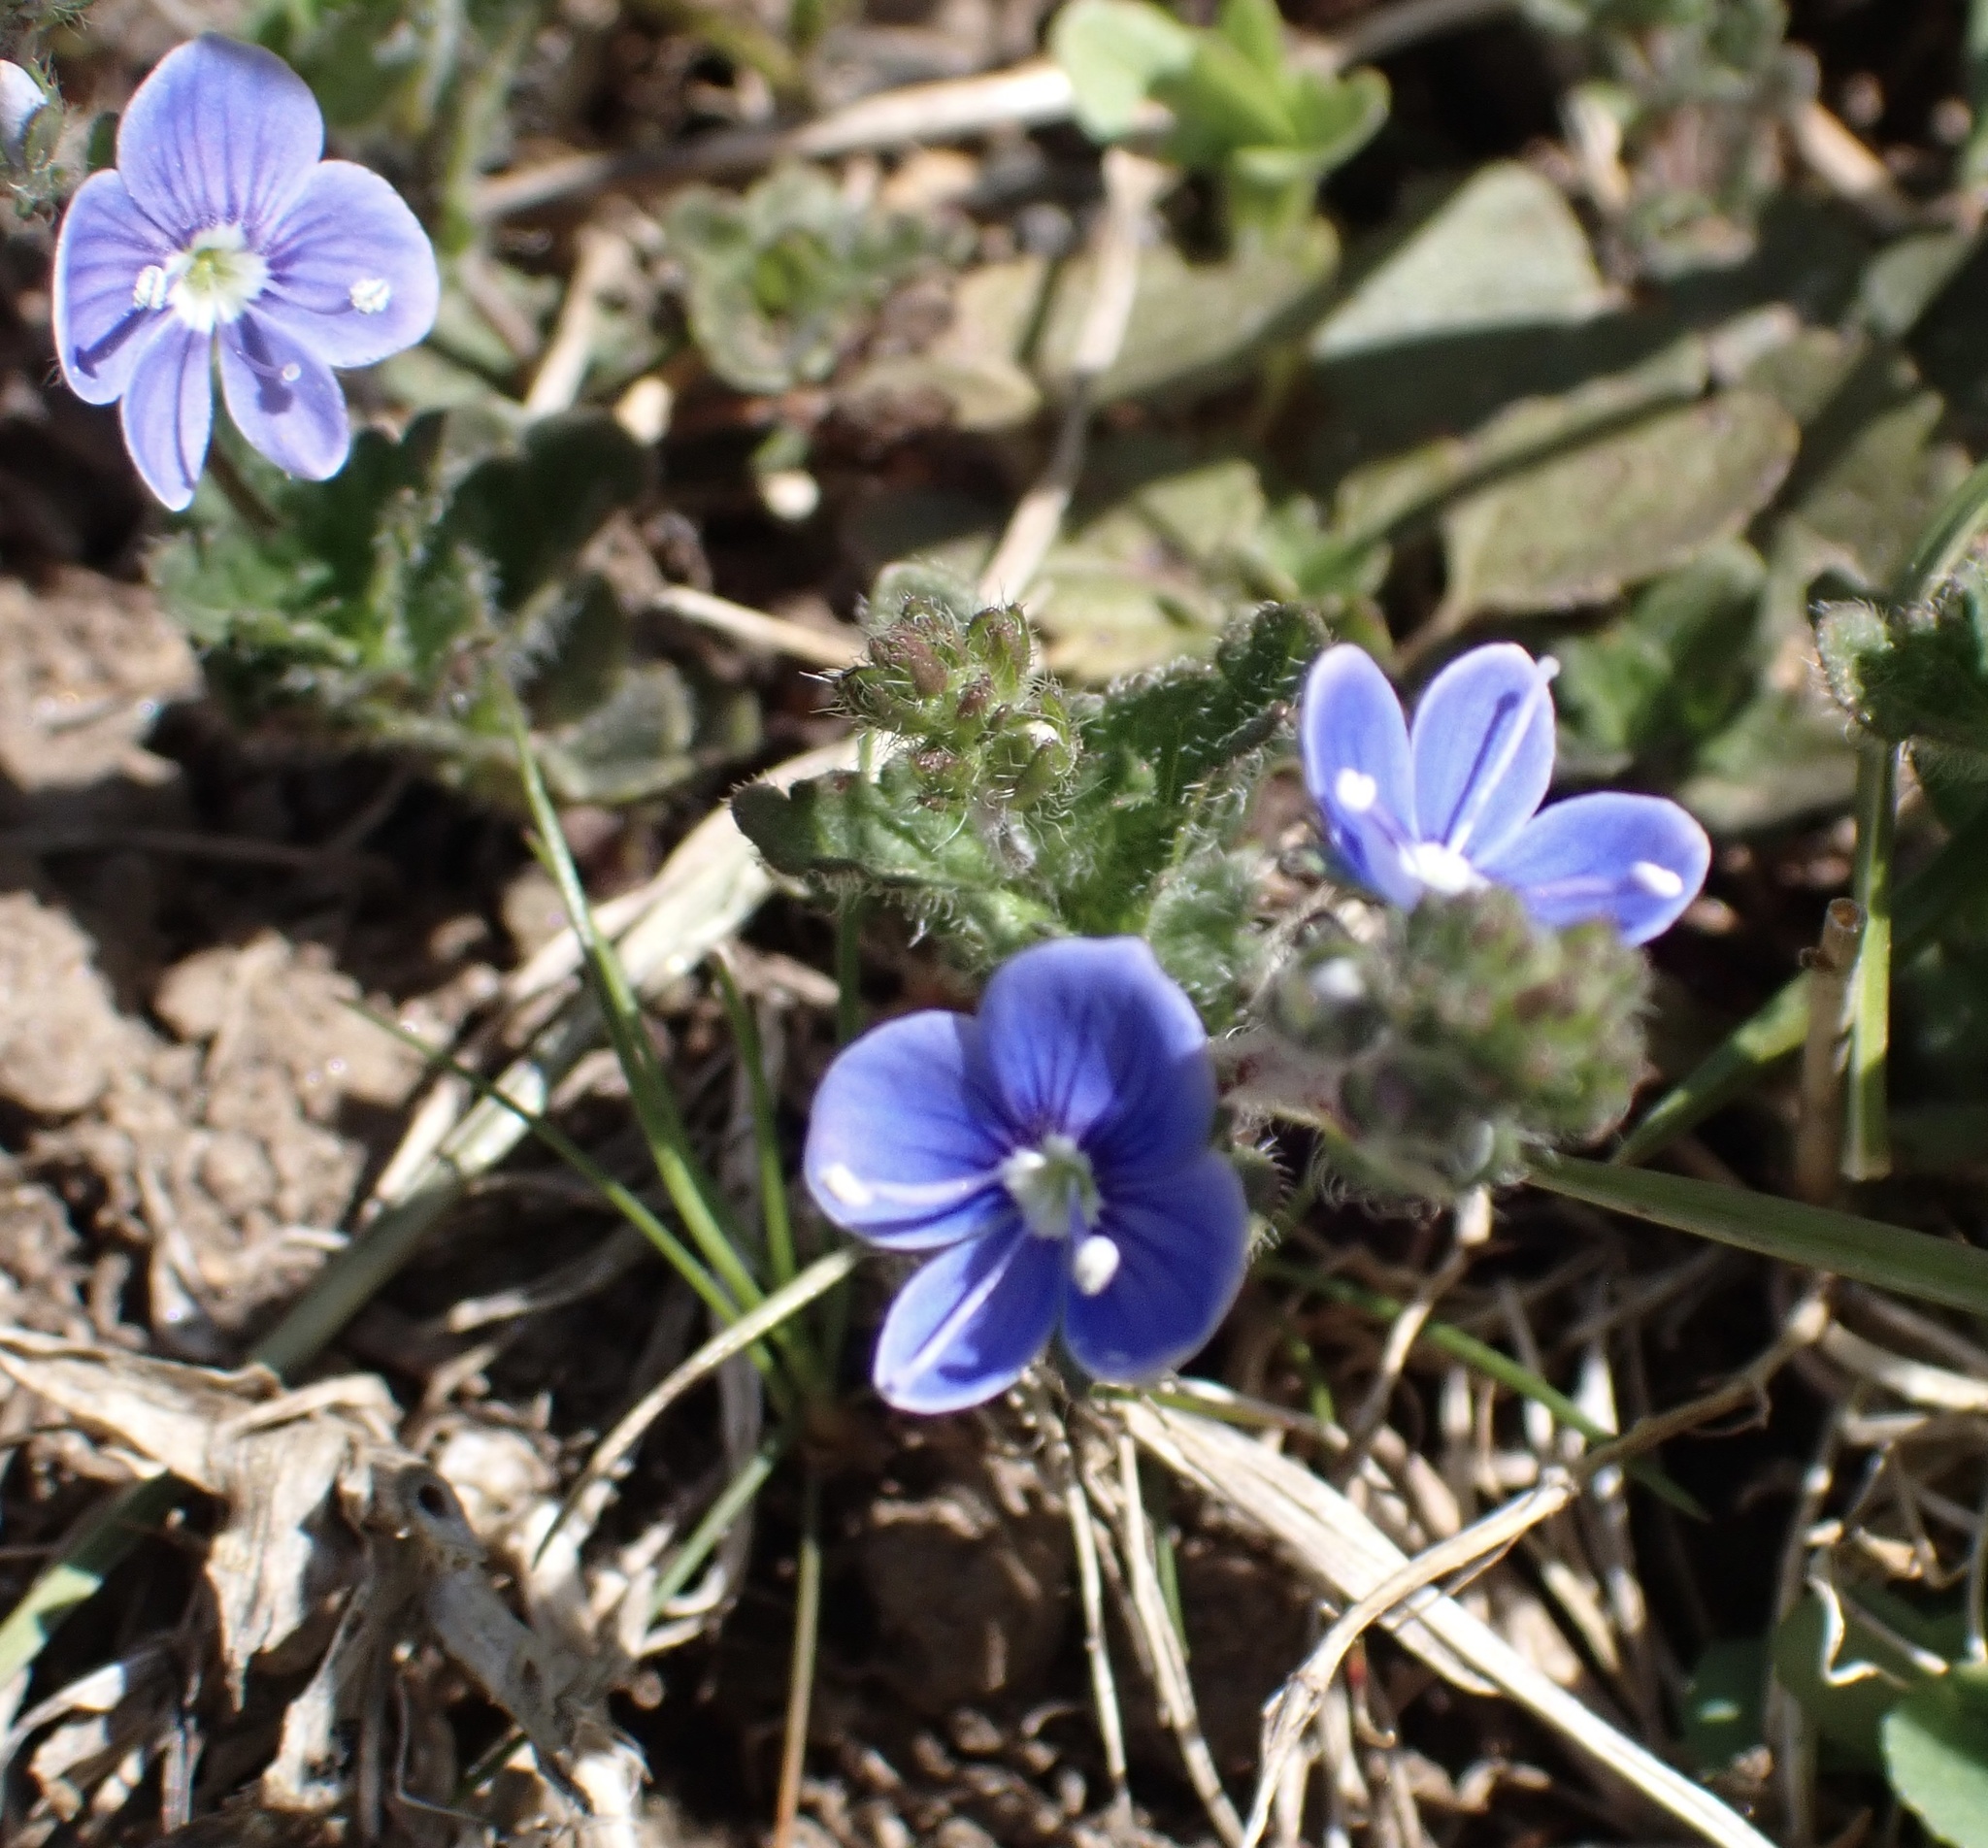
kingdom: Plantae
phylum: Tracheophyta
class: Magnoliopsida
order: Lamiales
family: Plantaginaceae
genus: Veronica
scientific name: Veronica chamaedrys
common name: Germander speedwell
